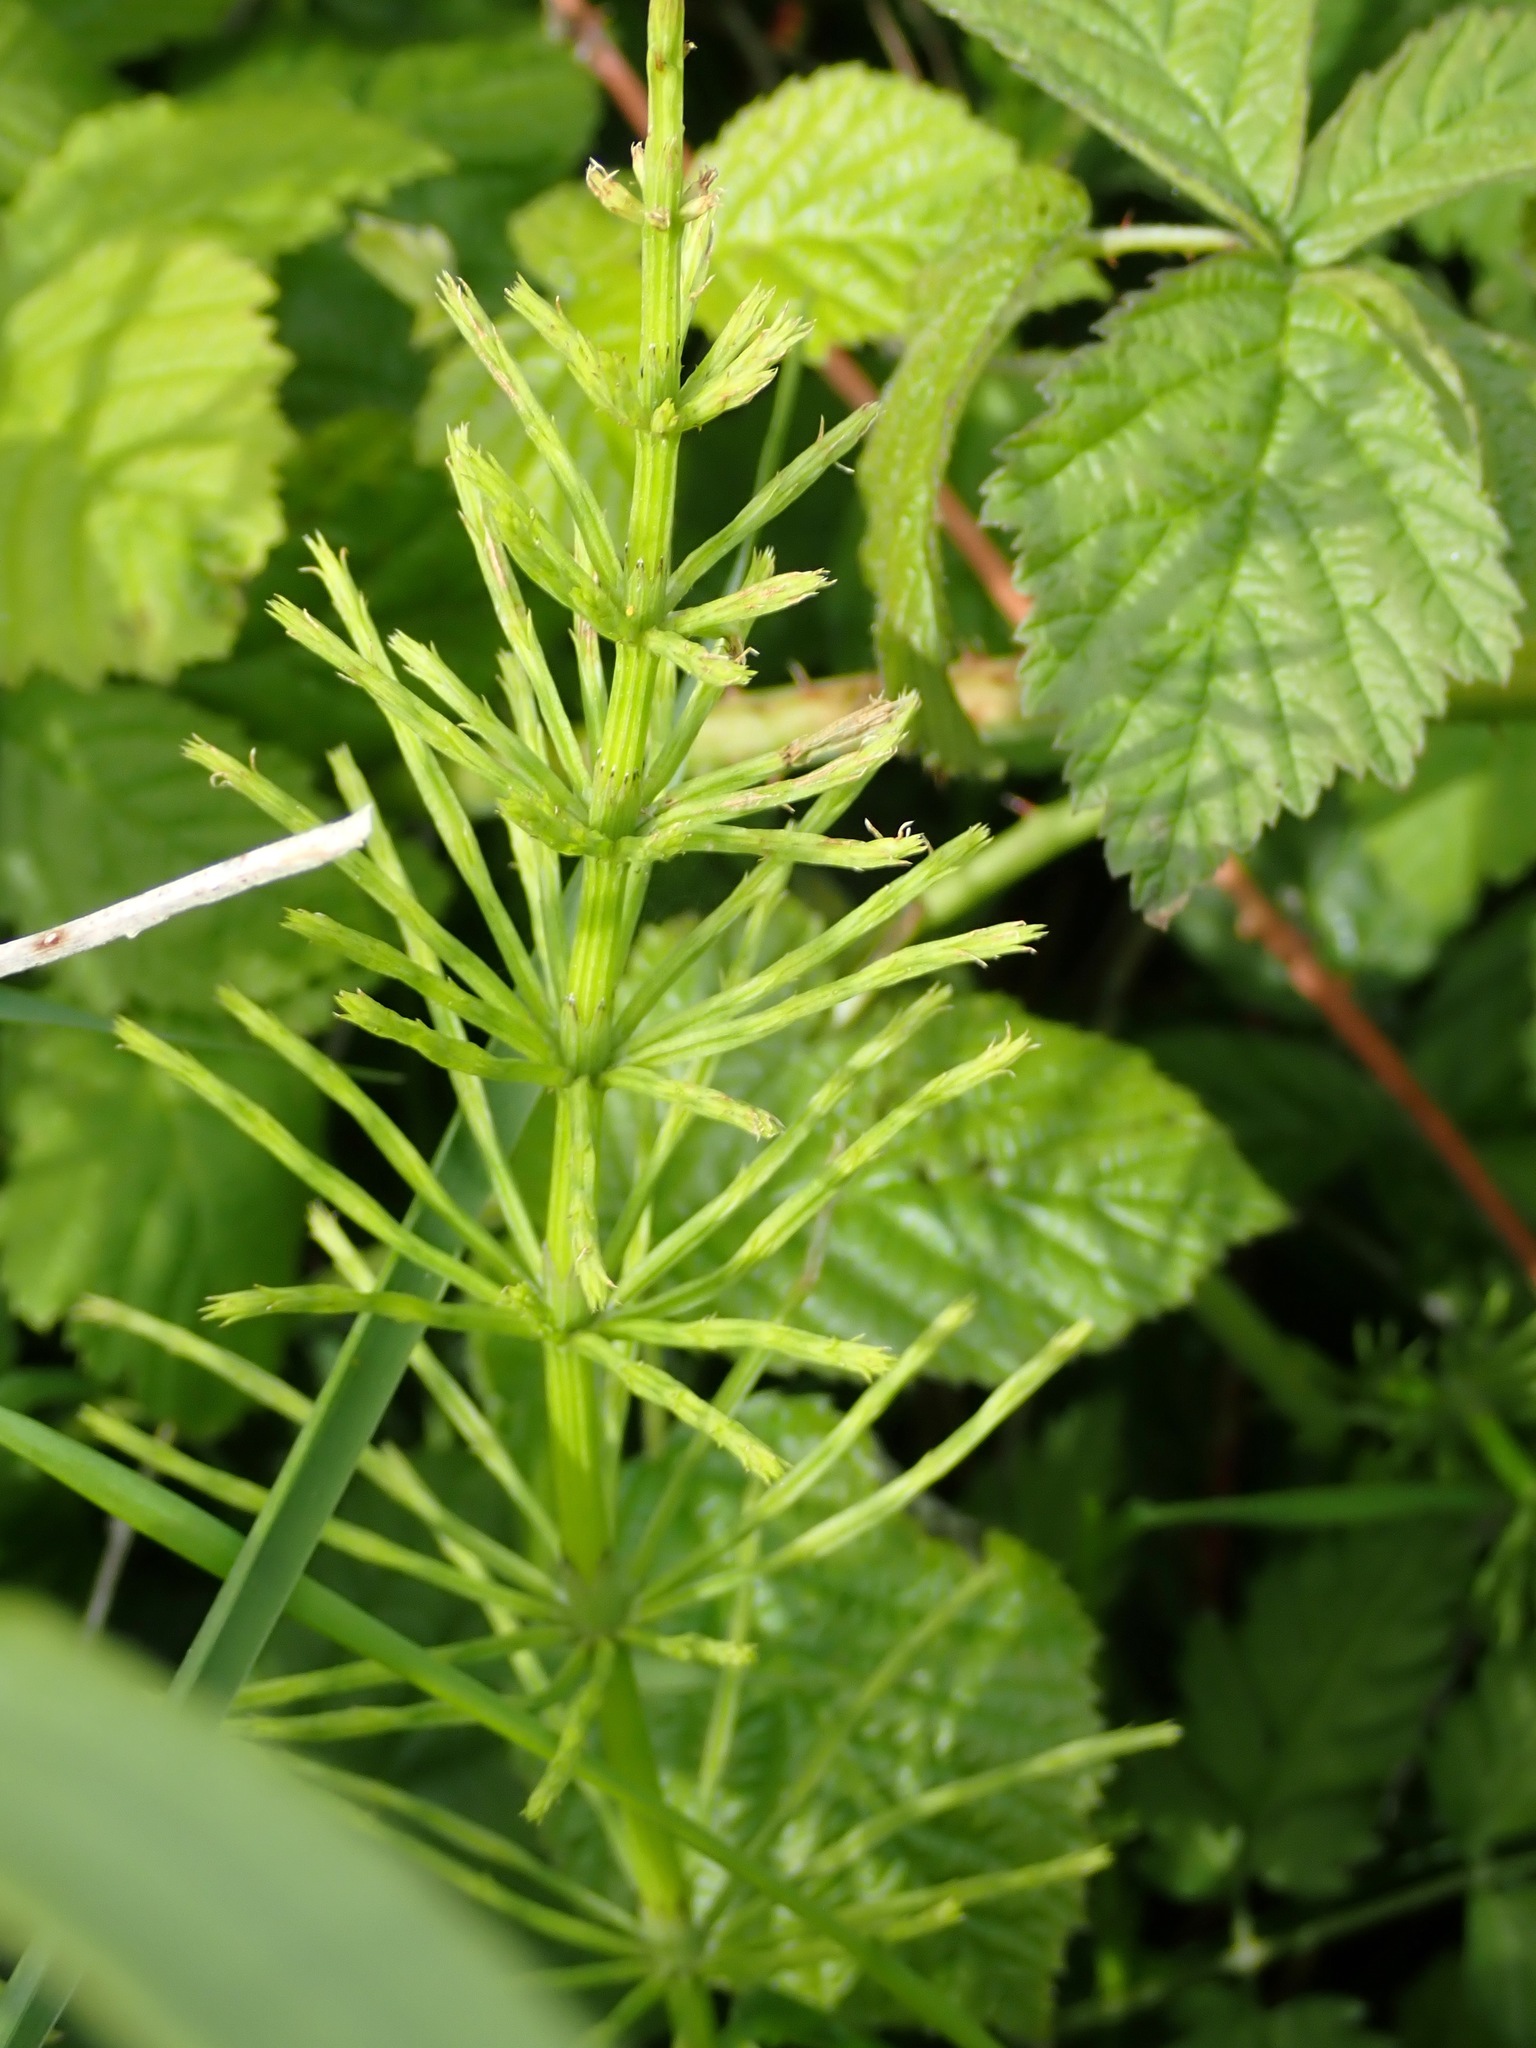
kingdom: Plantae
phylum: Tracheophyta
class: Polypodiopsida
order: Equisetales
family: Equisetaceae
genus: Equisetum
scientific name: Equisetum arvense
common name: Field horsetail
